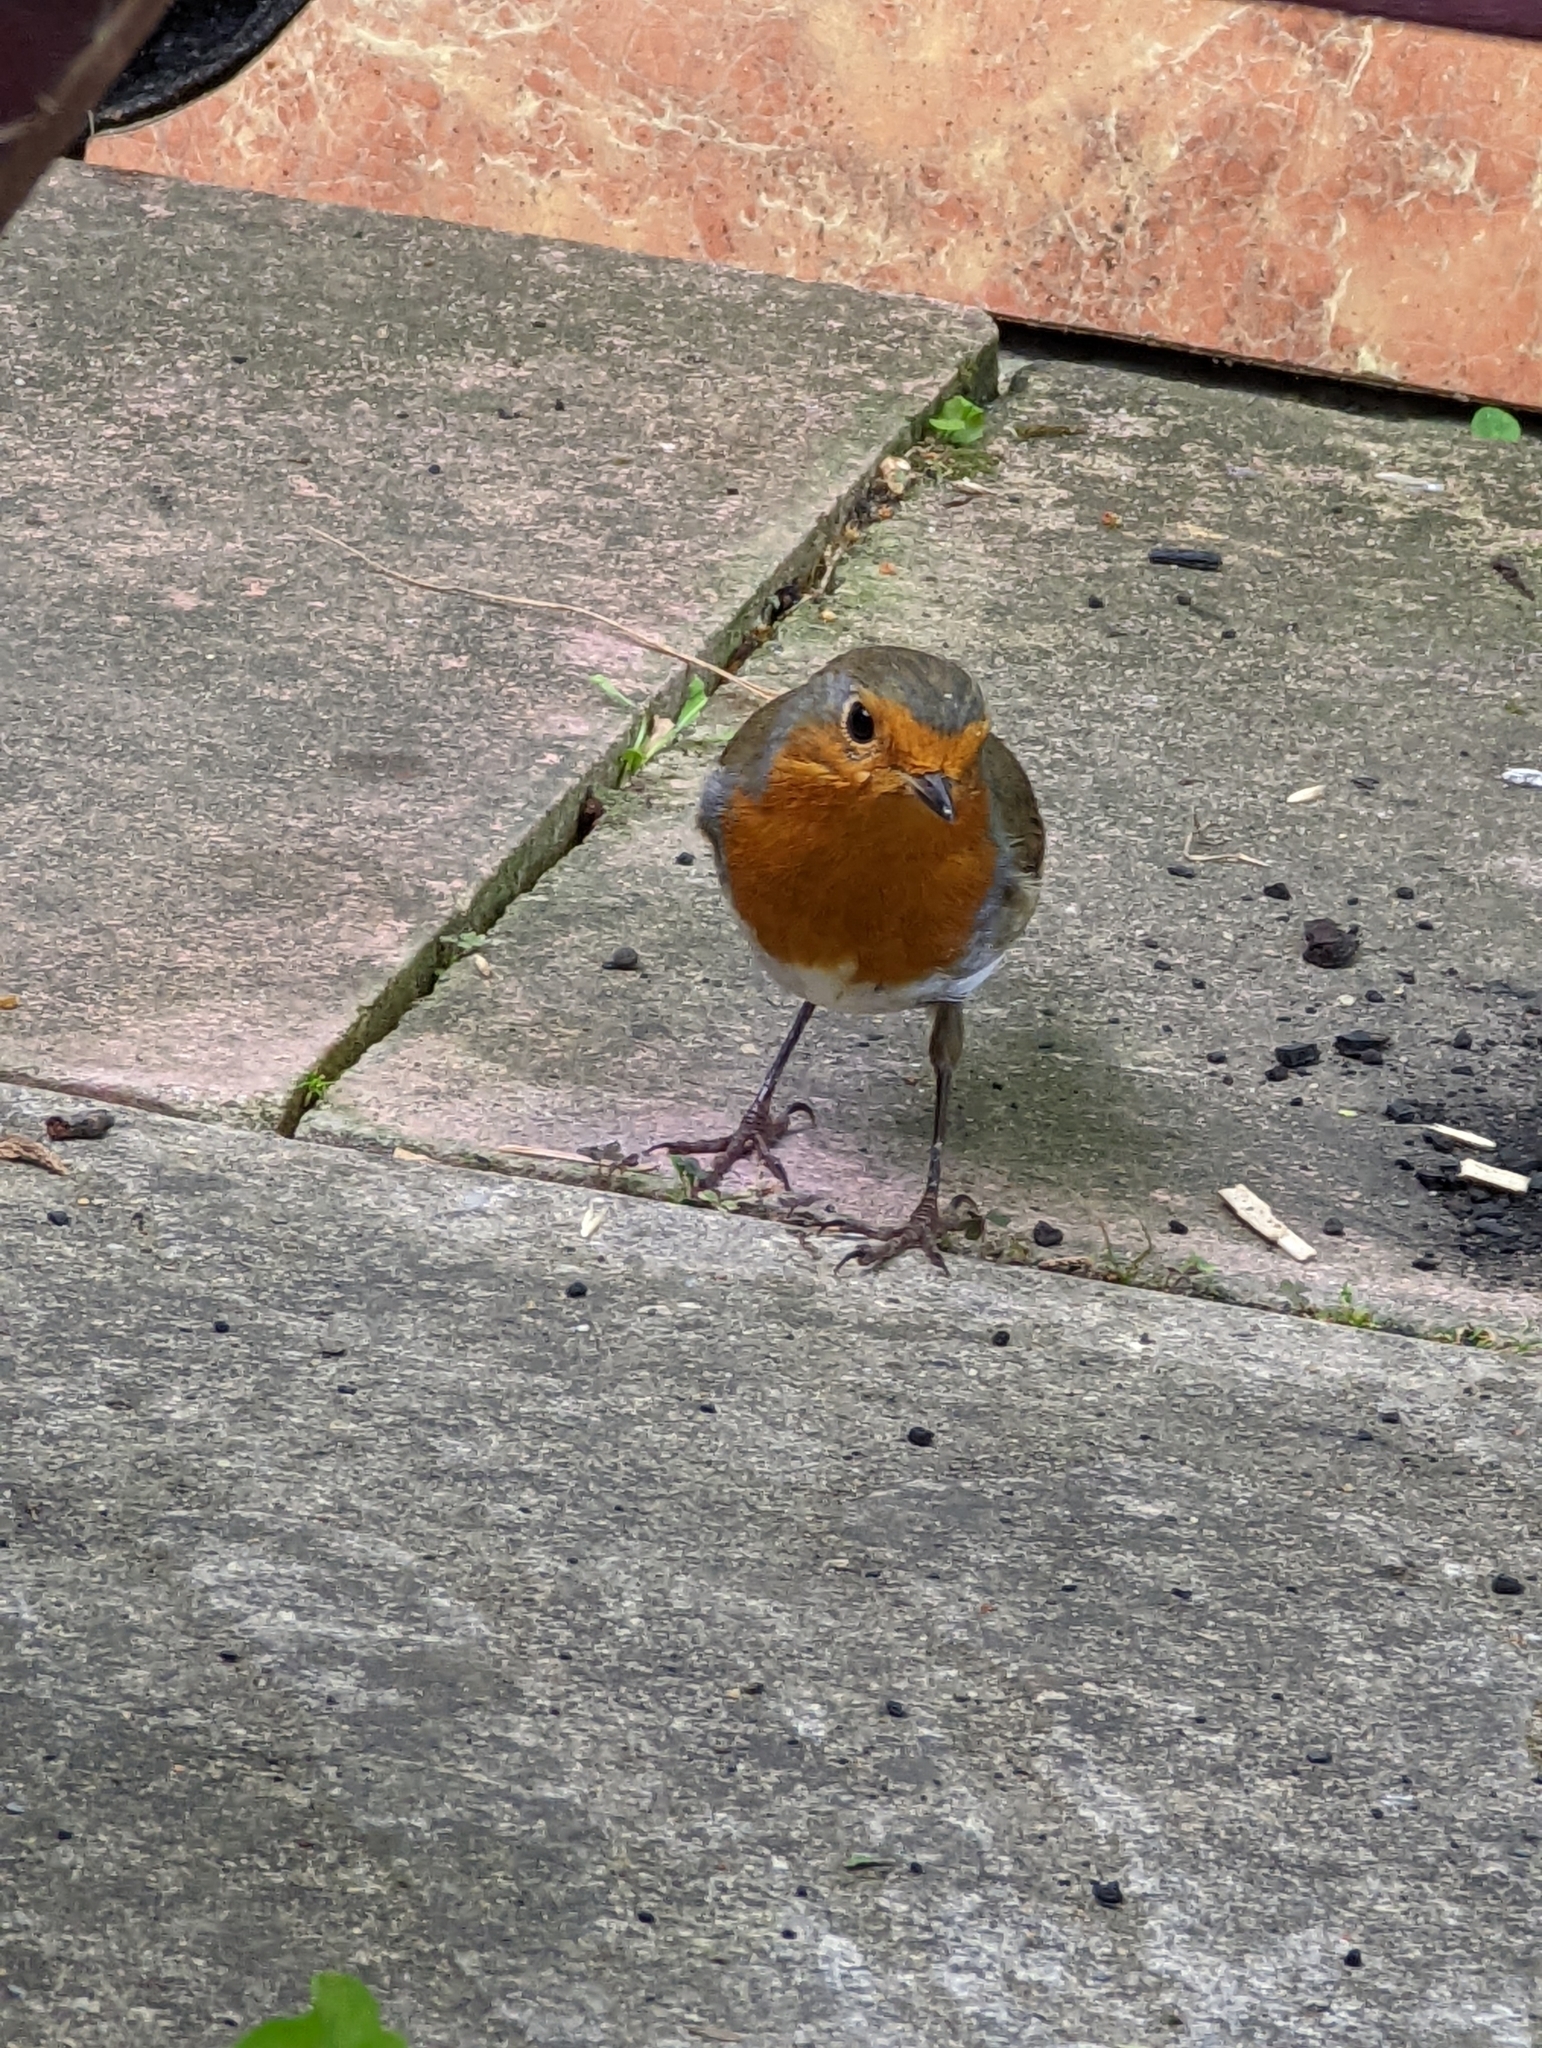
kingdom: Animalia
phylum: Chordata
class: Aves
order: Passeriformes
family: Muscicapidae
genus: Erithacus
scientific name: Erithacus rubecula
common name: European robin
